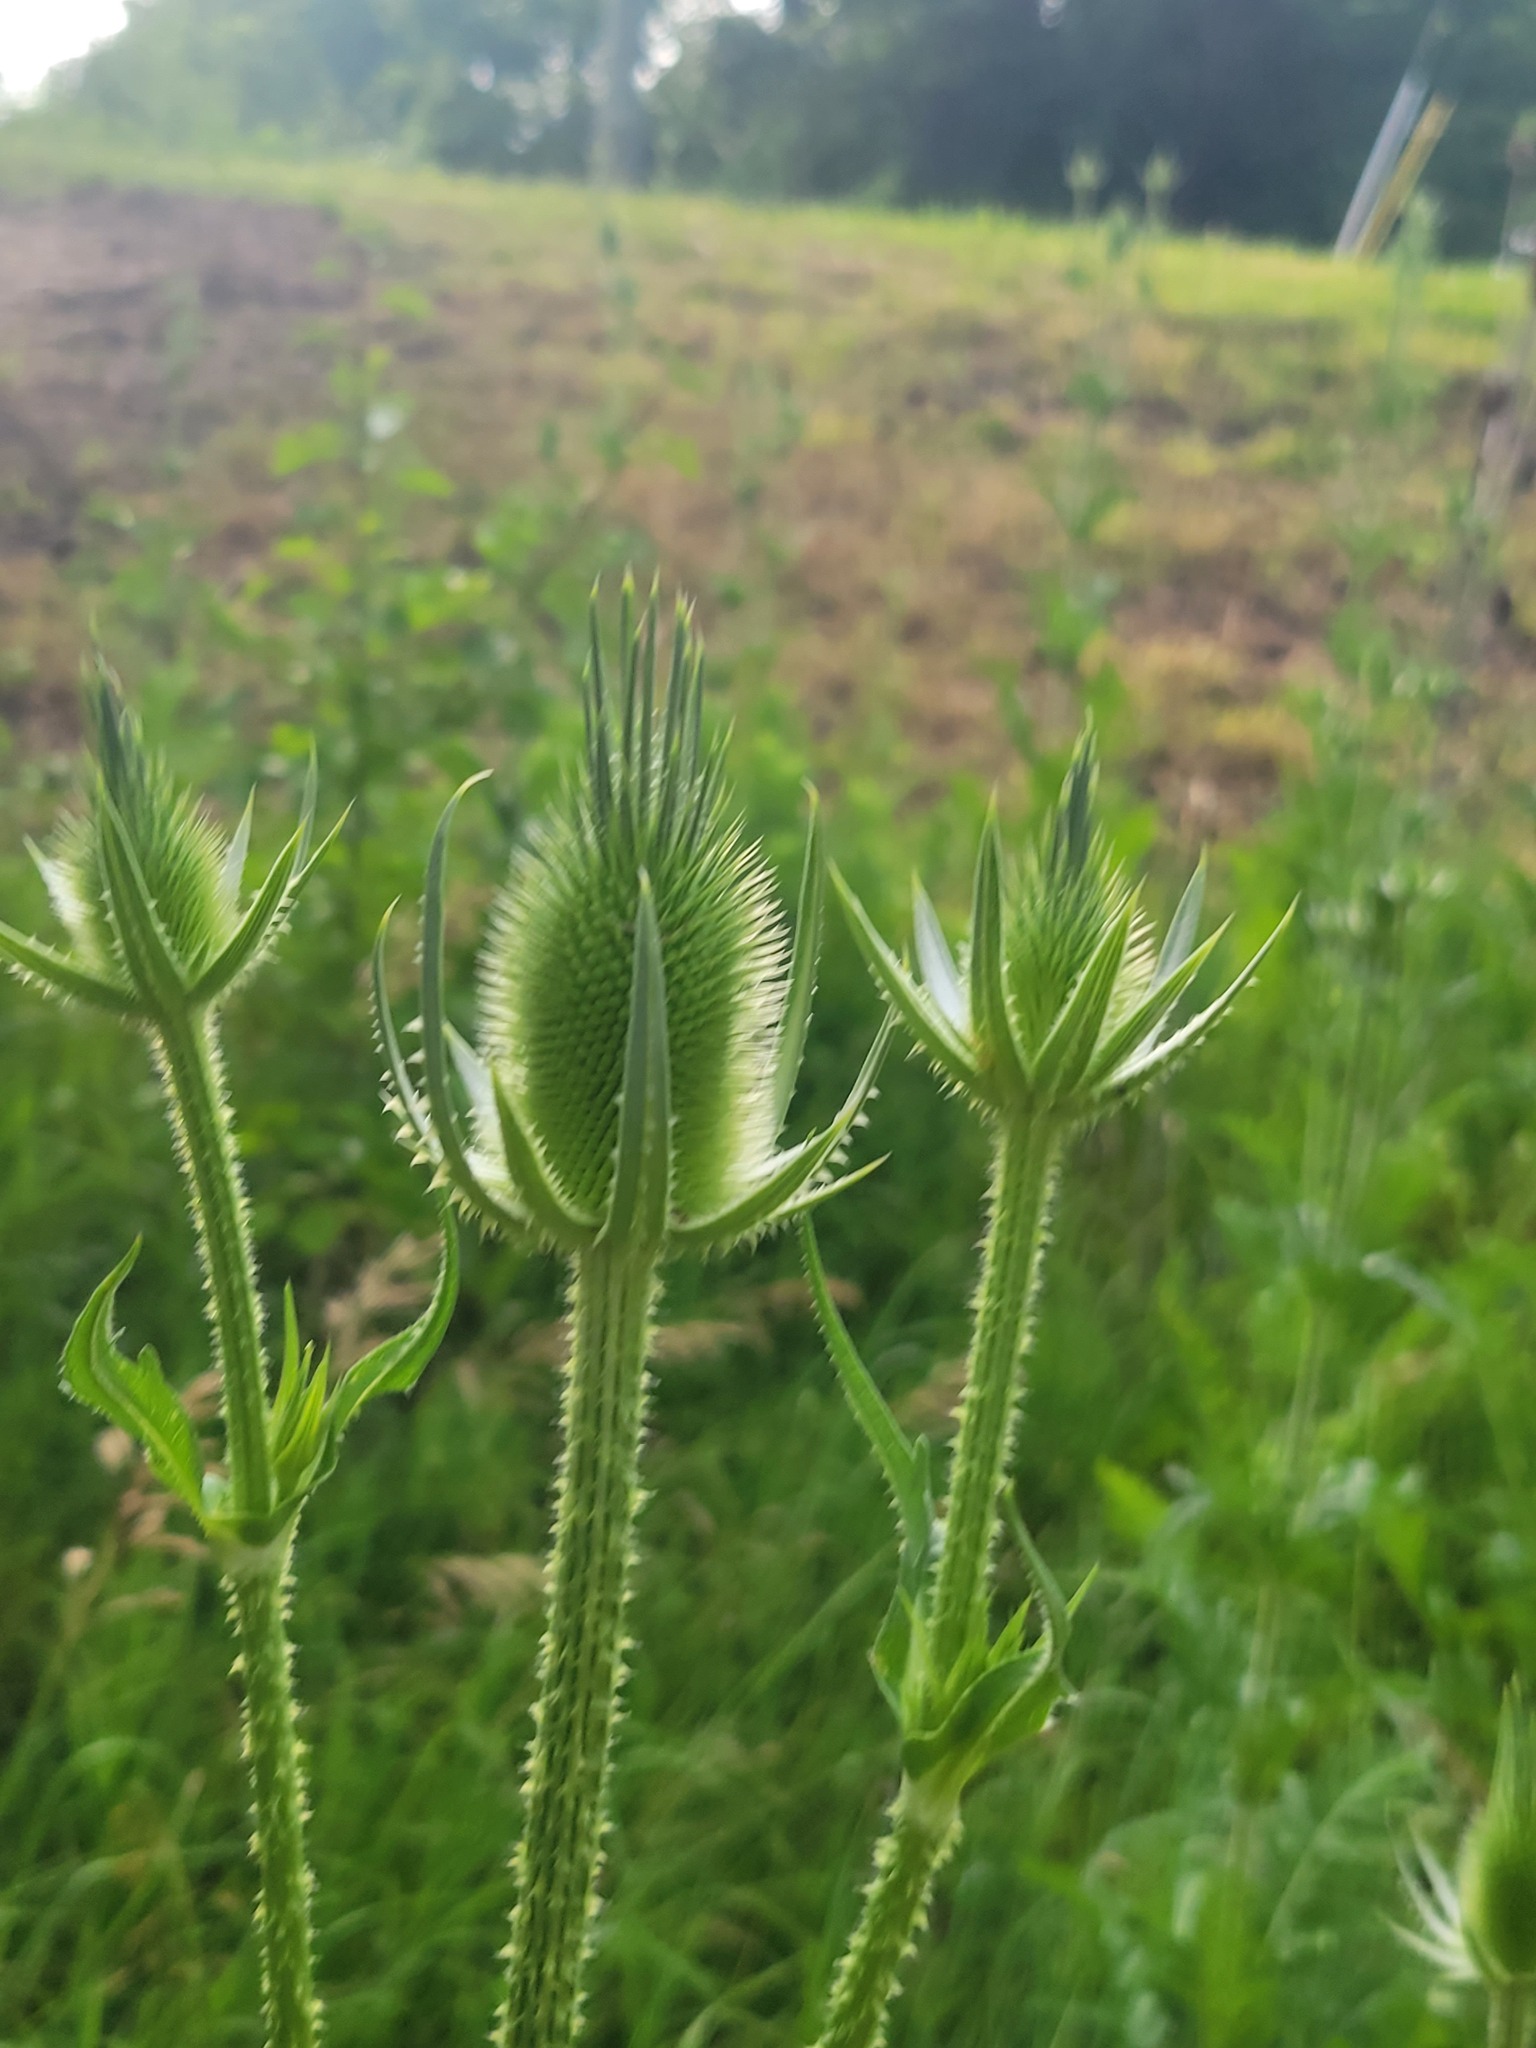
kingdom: Plantae
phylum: Tracheophyta
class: Magnoliopsida
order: Dipsacales
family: Caprifoliaceae
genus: Dipsacus
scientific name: Dipsacus laciniatus
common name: Cut-leaved teasel
